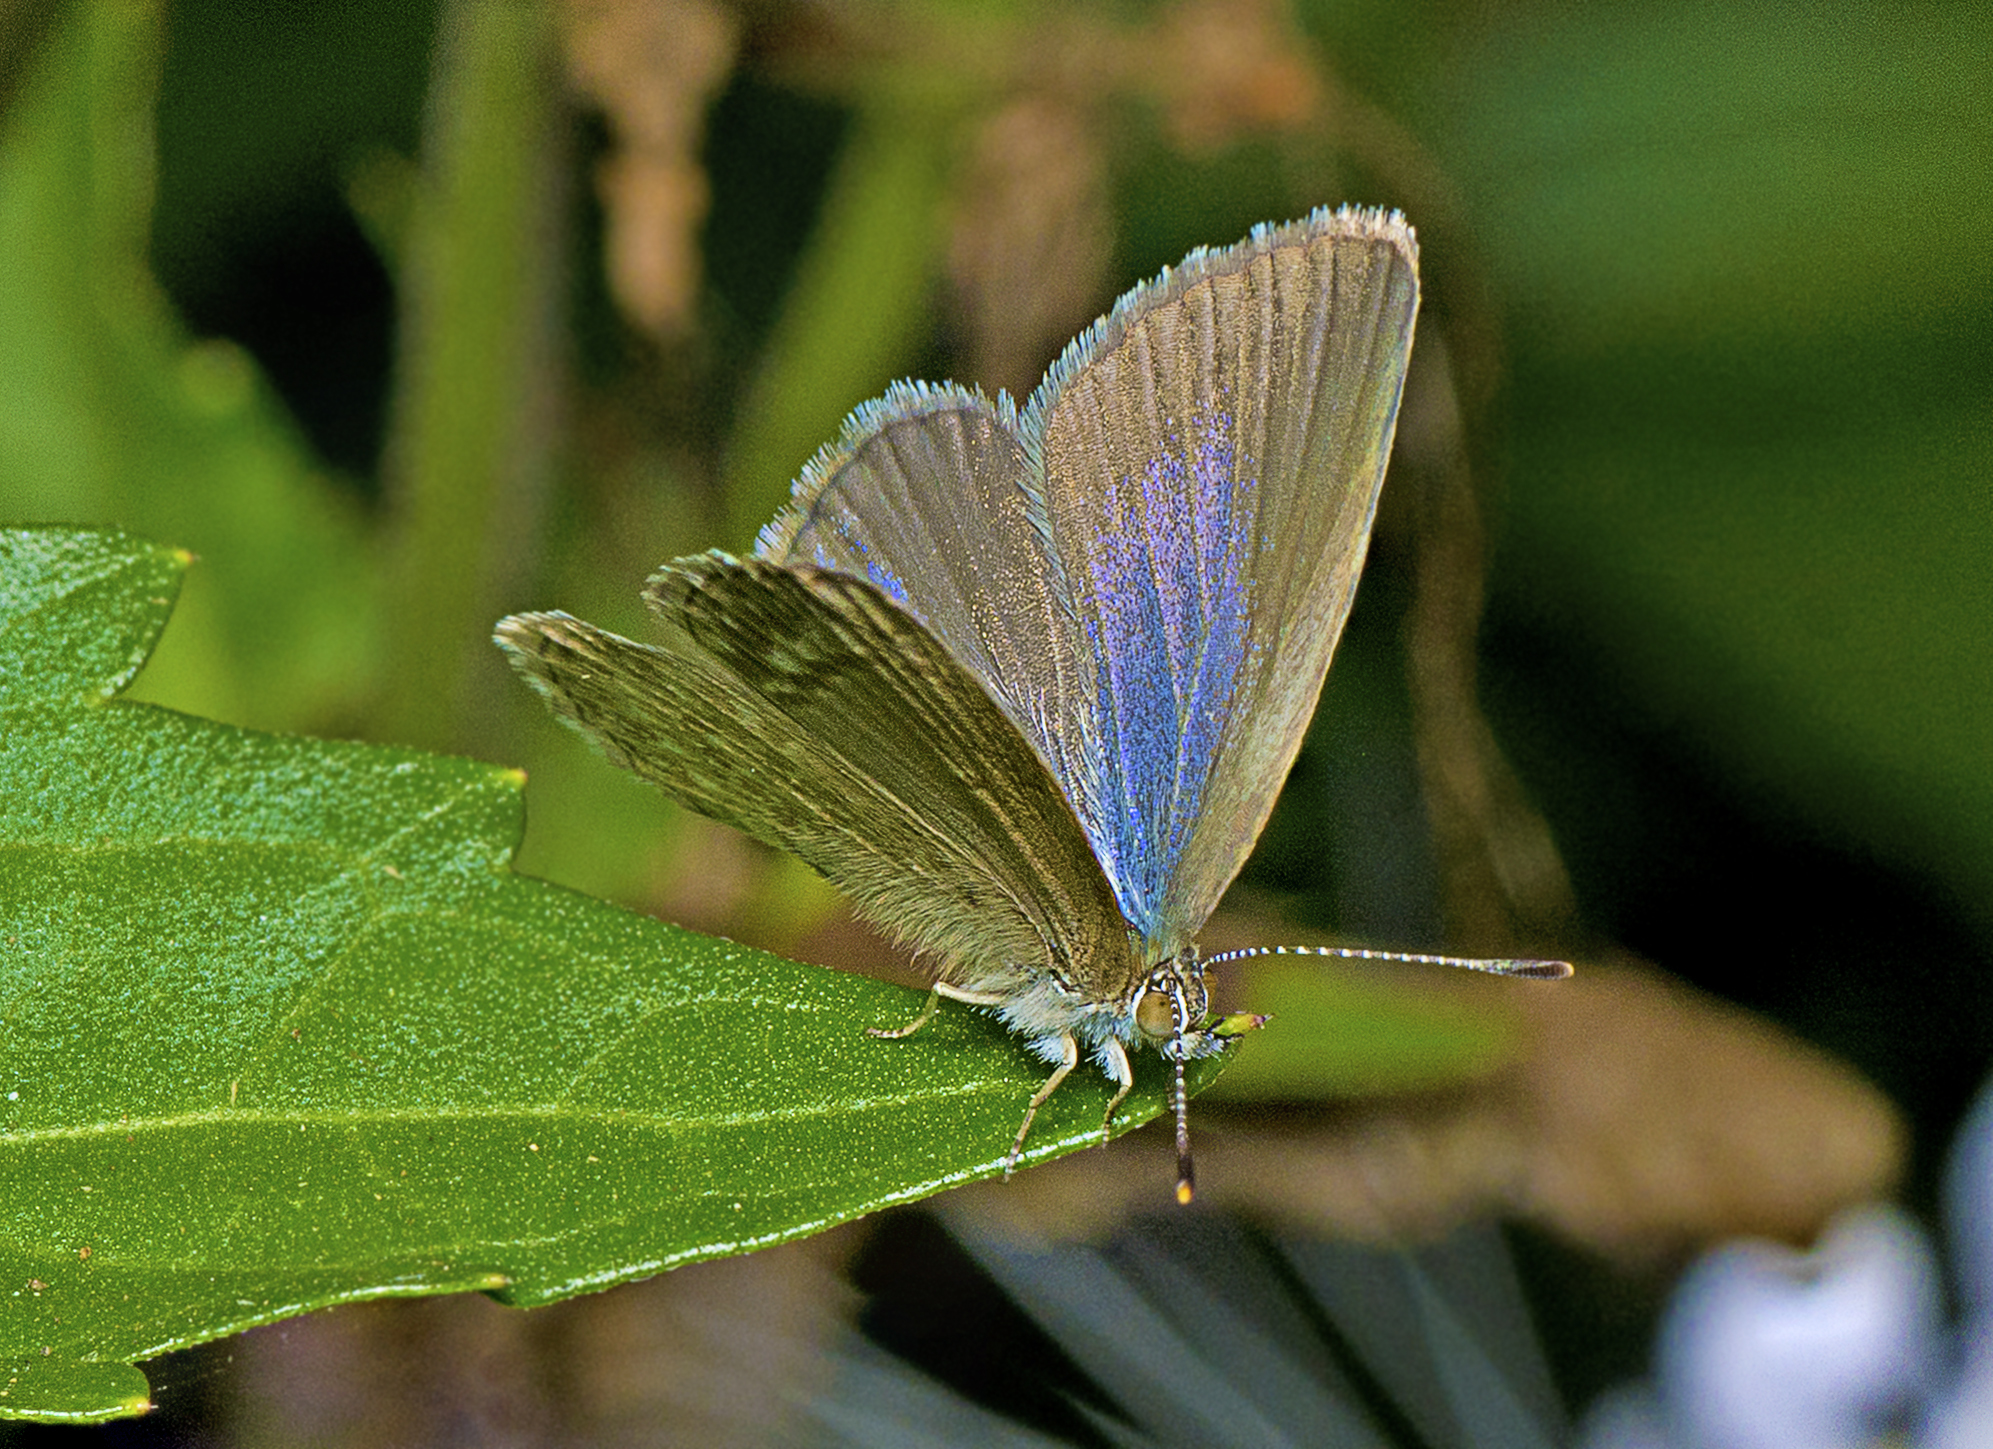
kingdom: Animalia
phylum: Arthropoda
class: Insecta
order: Lepidoptera
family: Lycaenidae
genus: Zizina
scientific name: Zizina labradus
